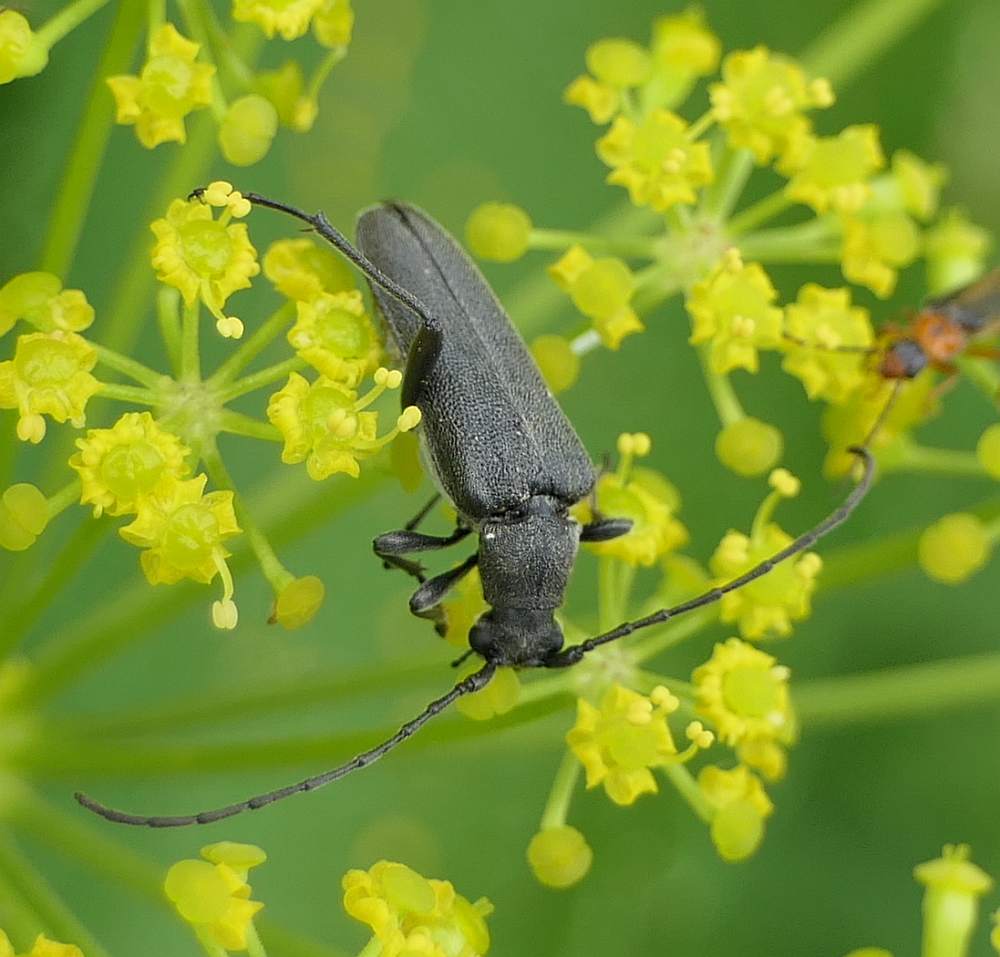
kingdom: Animalia
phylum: Arthropoda
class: Insecta
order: Coleoptera
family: Cerambycidae
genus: Trachysida
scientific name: Trachysida mutabilis
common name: Changeable flower longhorn
